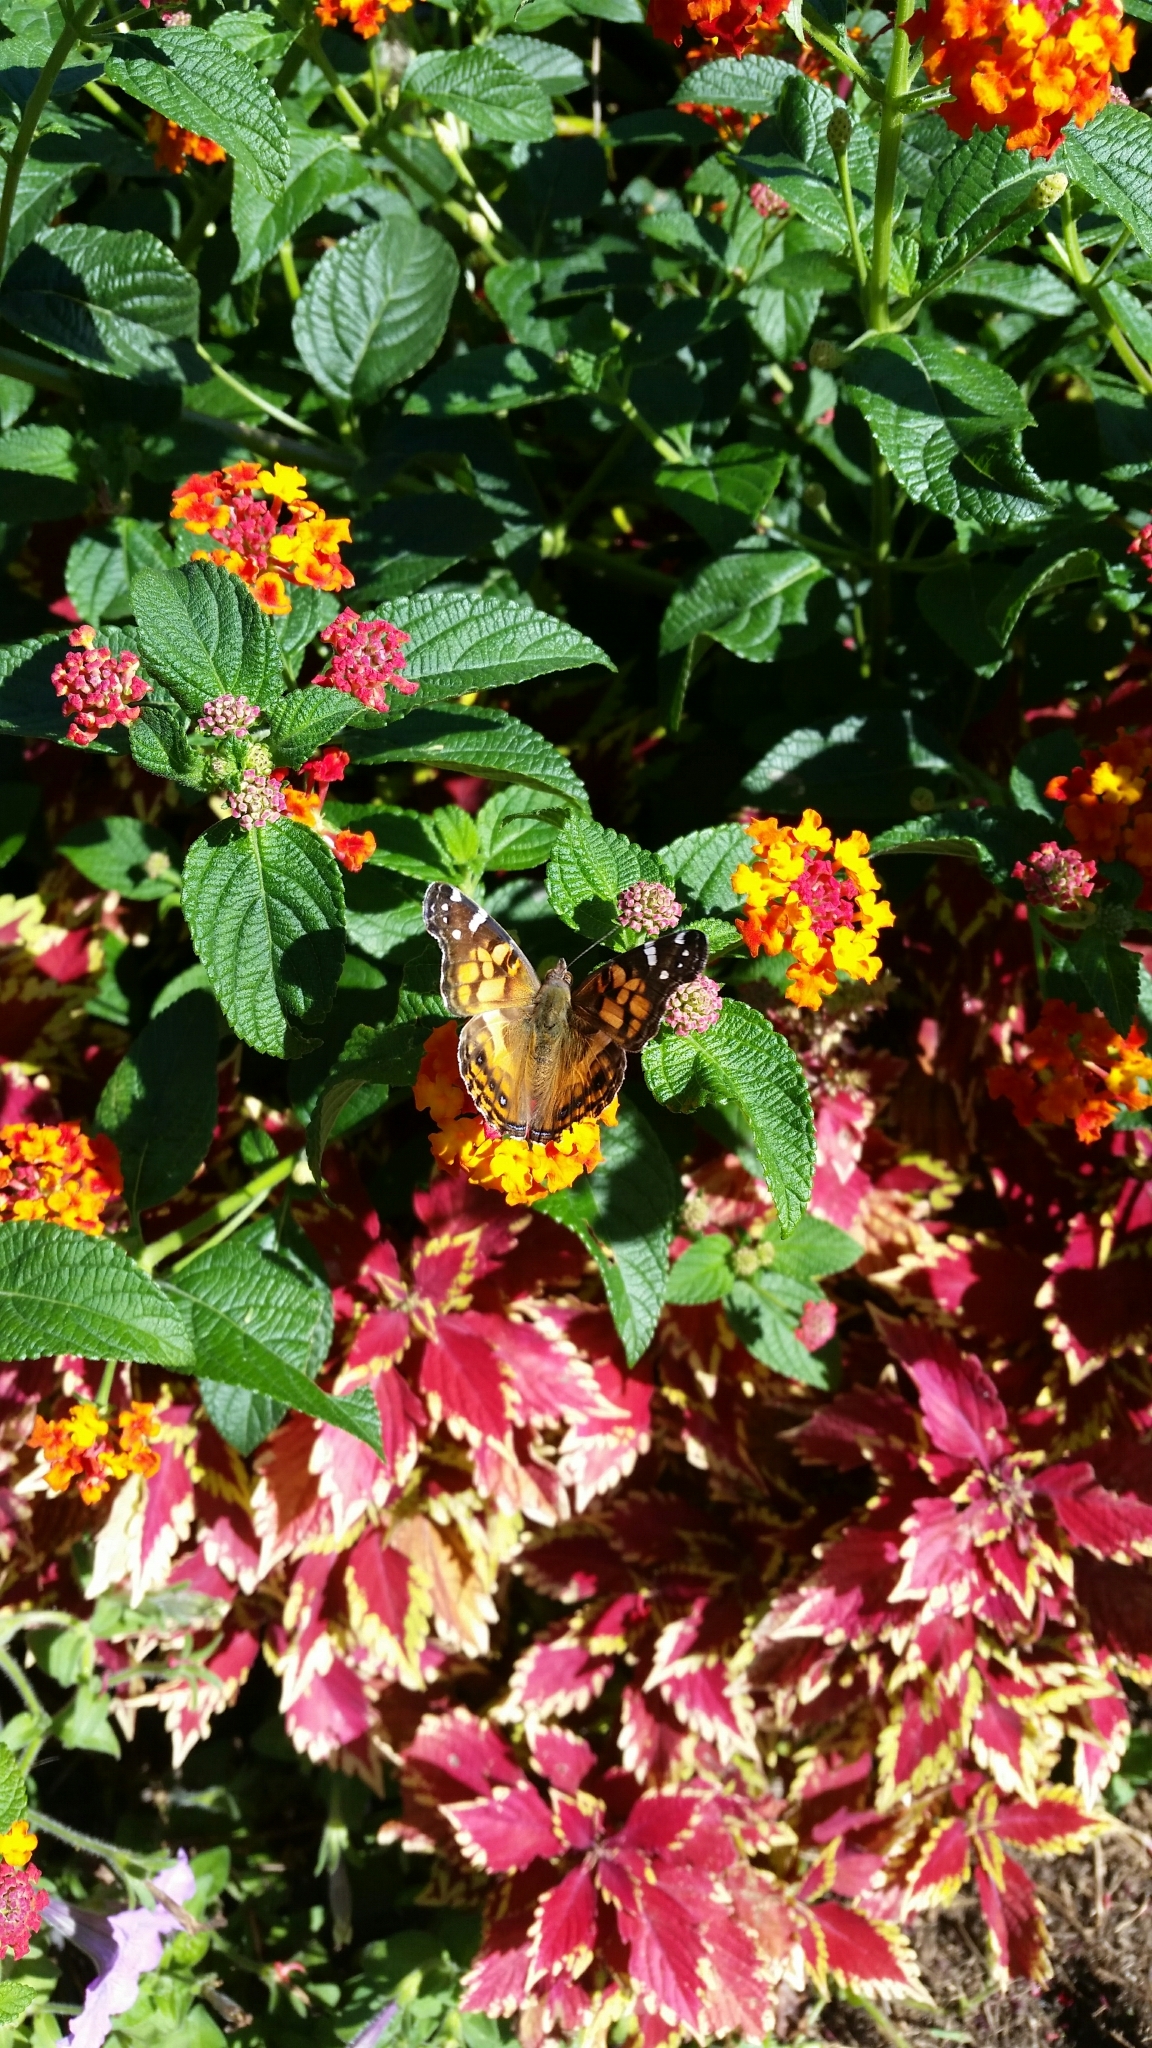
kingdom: Animalia
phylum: Arthropoda
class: Insecta
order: Lepidoptera
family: Nymphalidae
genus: Vanessa
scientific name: Vanessa virginiensis
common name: American lady
